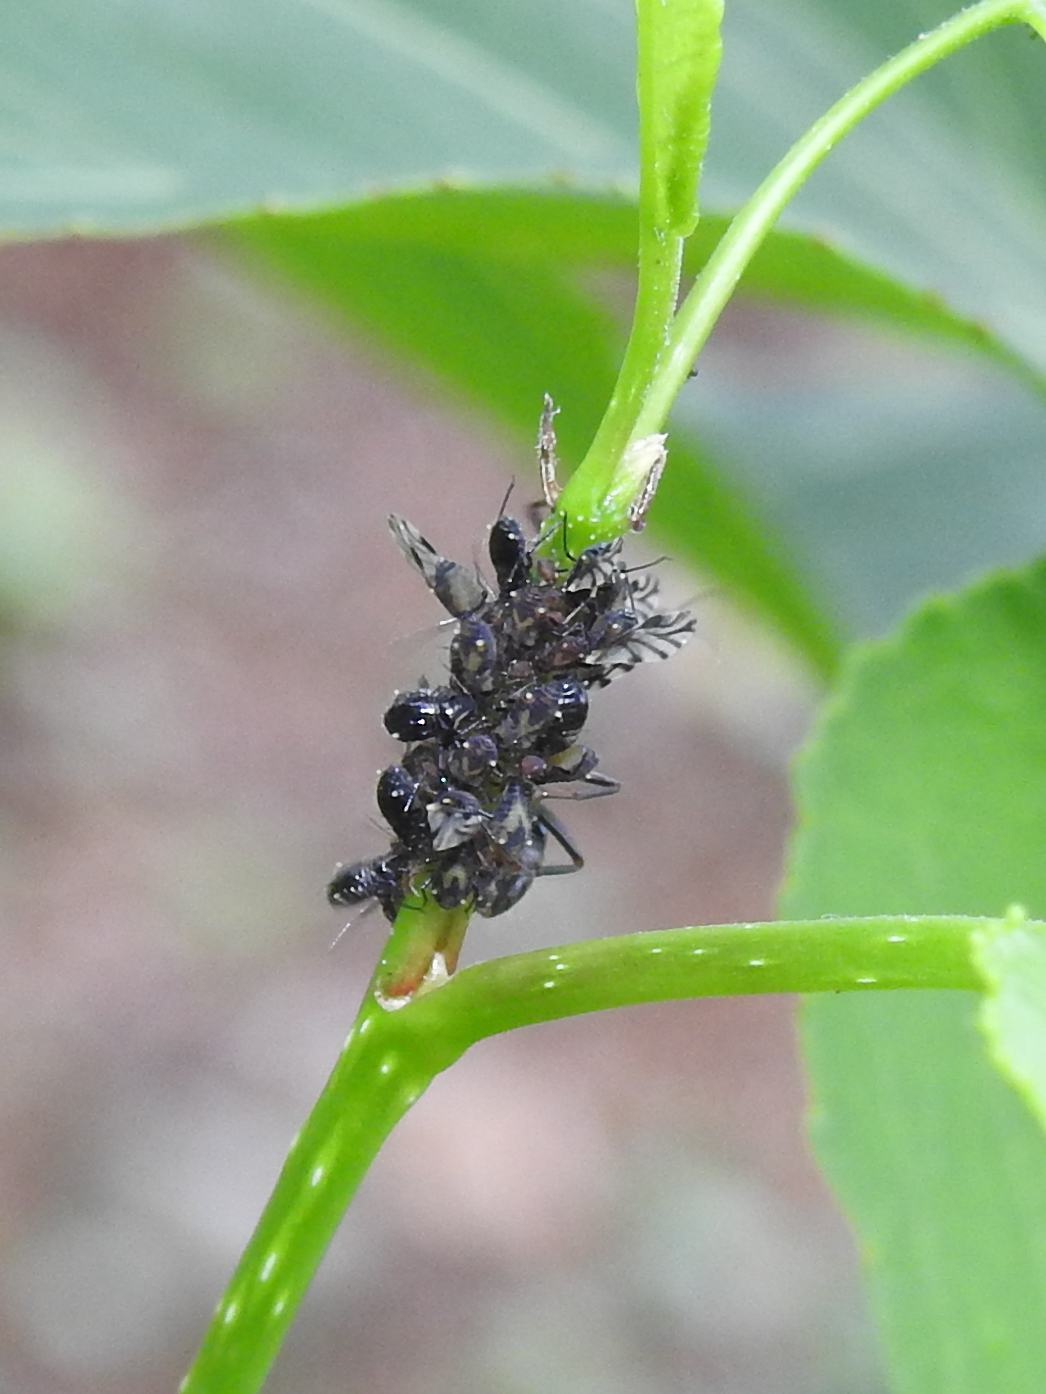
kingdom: Animalia
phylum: Arthropoda
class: Insecta
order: Hemiptera
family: Aphididae
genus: Chaitophorus
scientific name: Chaitophorus populicola
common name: Smokywinged poplar aphid
